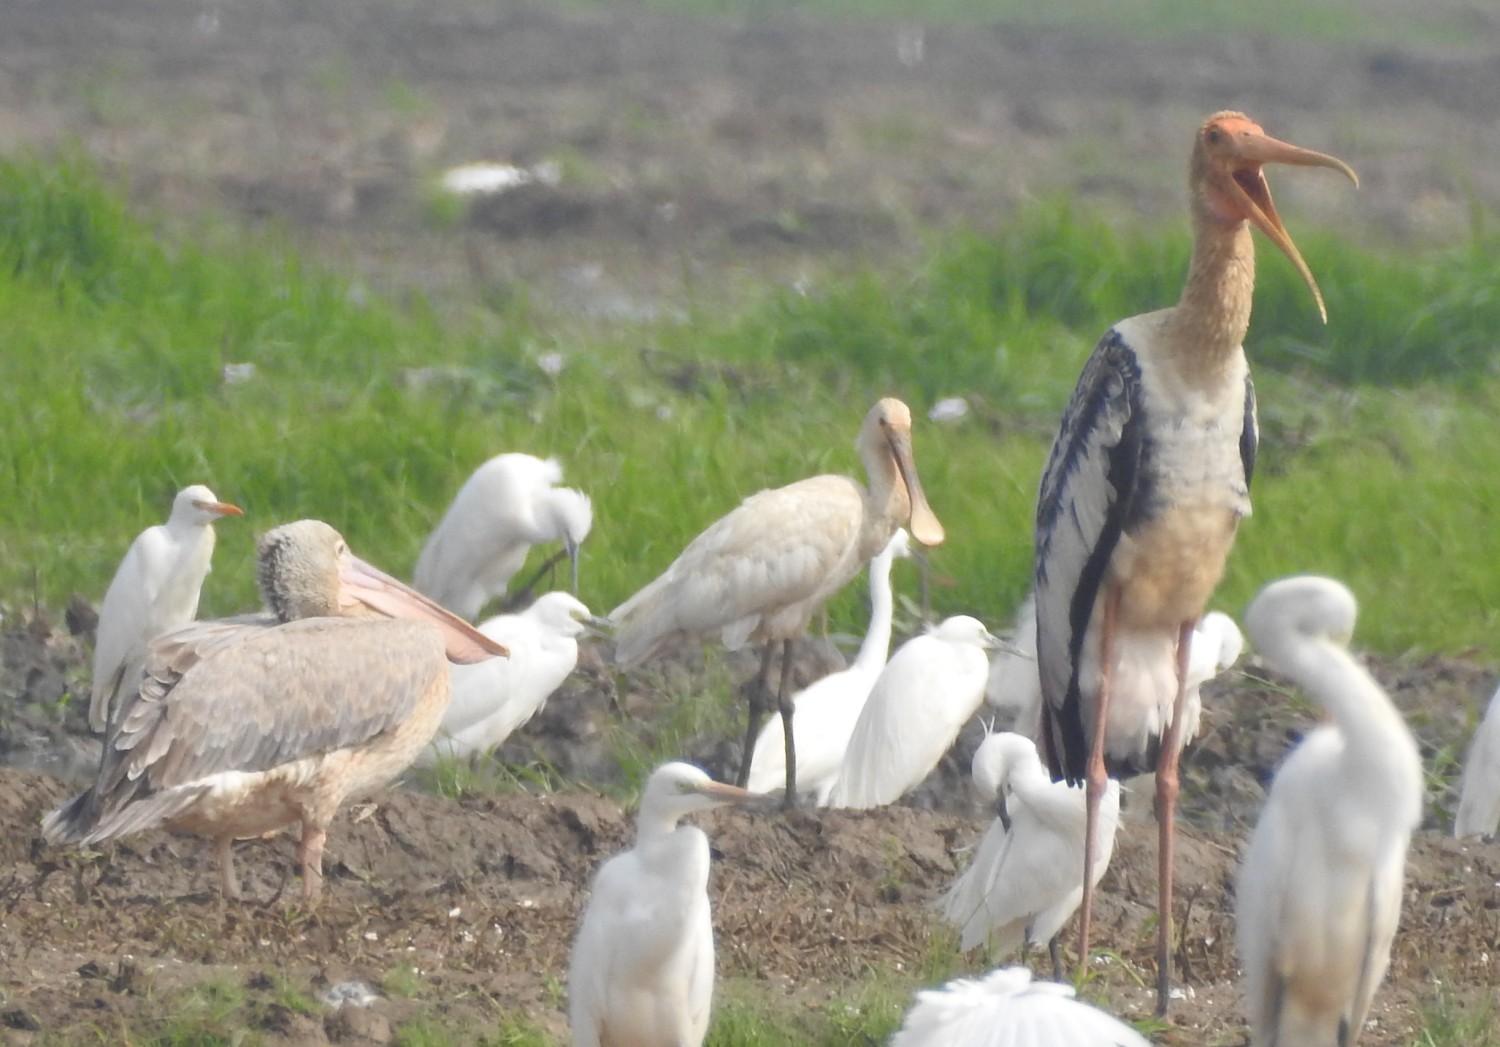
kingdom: Animalia
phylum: Chordata
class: Aves
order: Pelecaniformes
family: Threskiornithidae
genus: Platalea
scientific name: Platalea leucorodia
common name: Eurasian spoonbill
